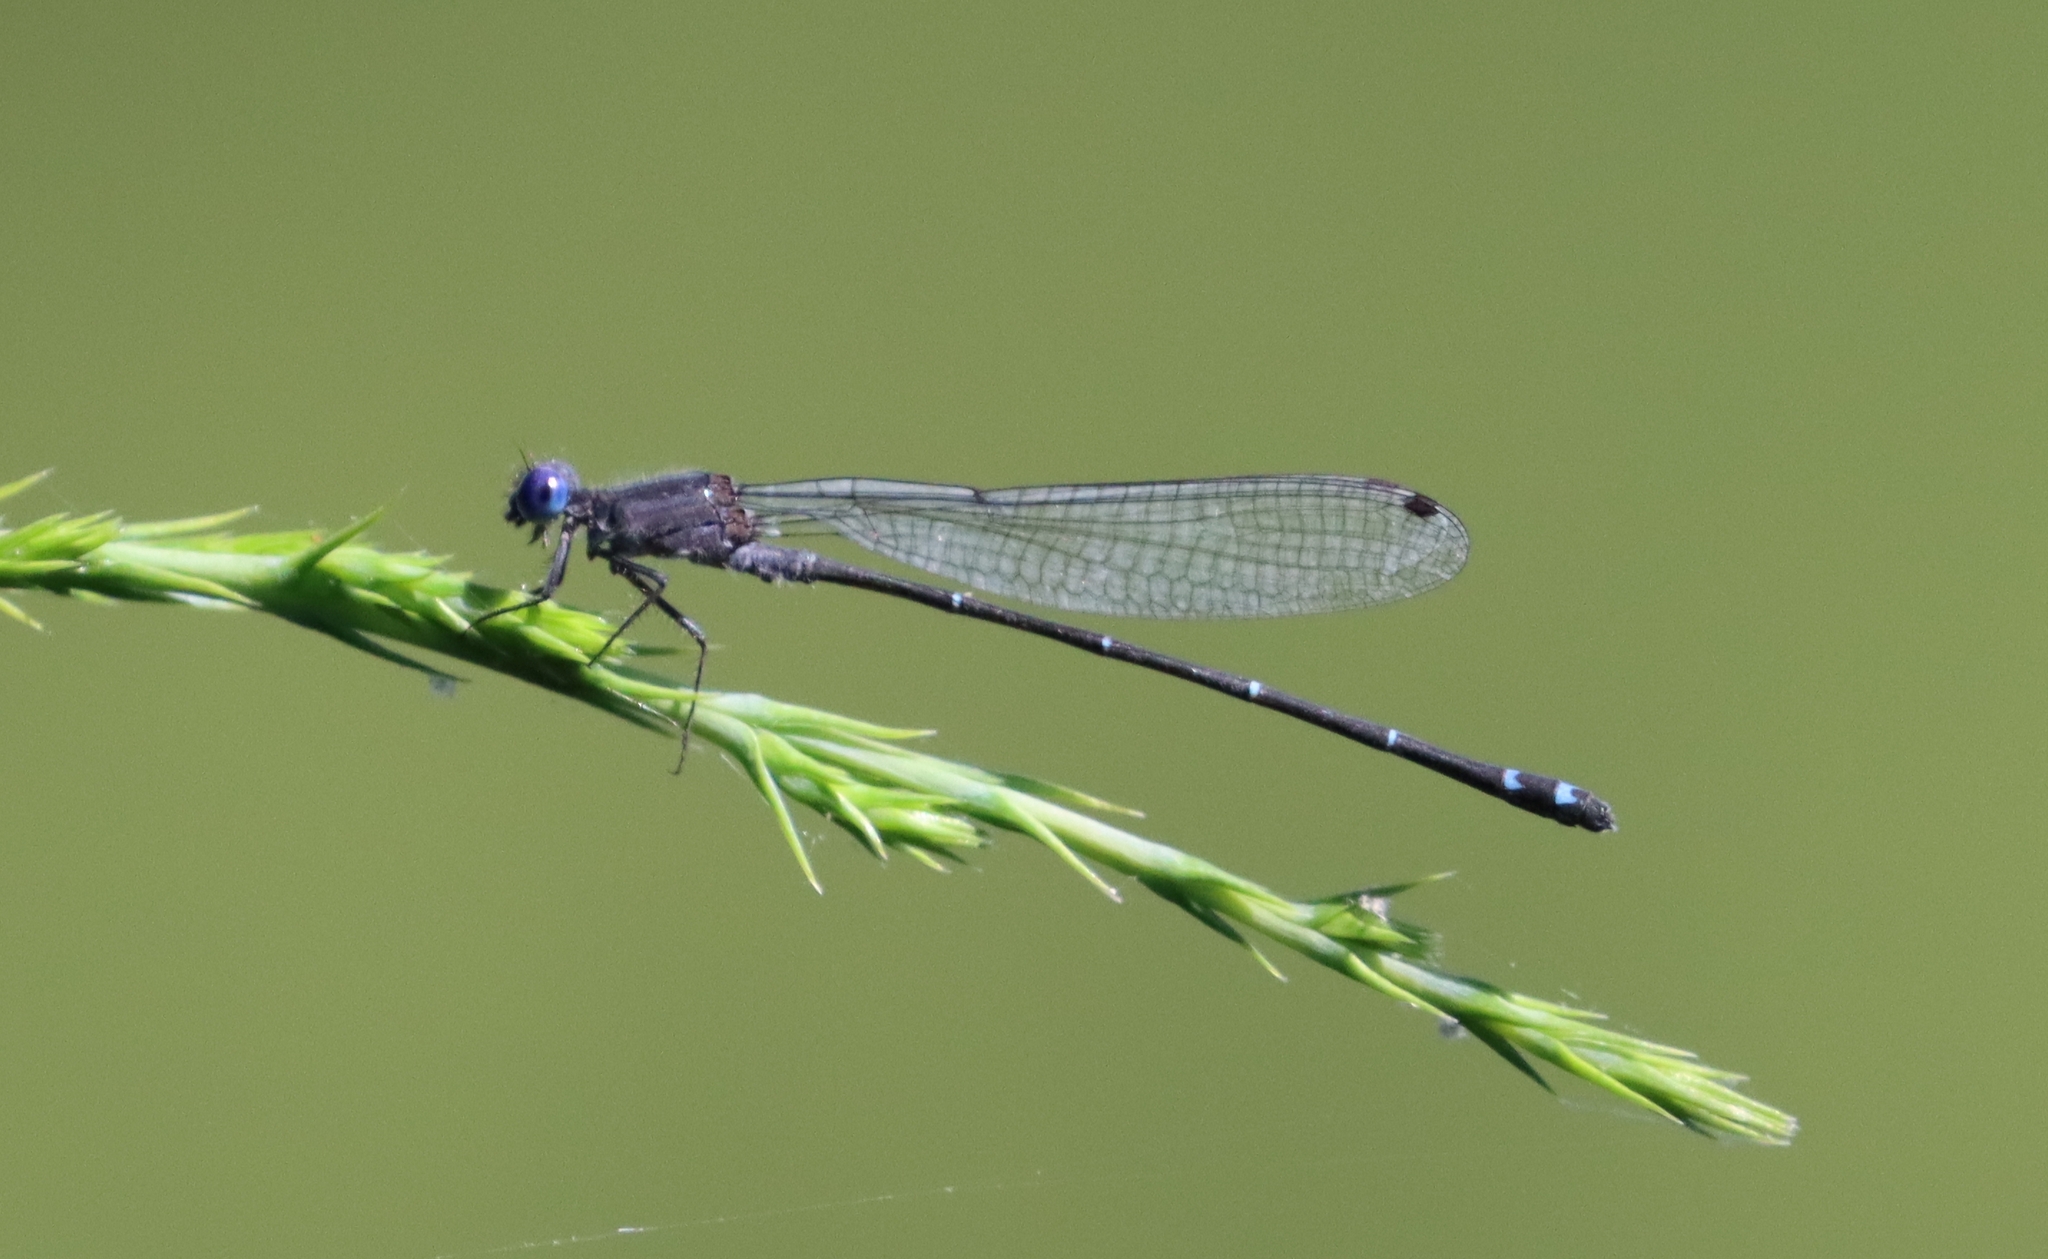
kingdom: Animalia
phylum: Arthropoda
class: Insecta
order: Odonata
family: Coenagrionidae
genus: Argia
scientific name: Argia translata
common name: Dusky dancer
